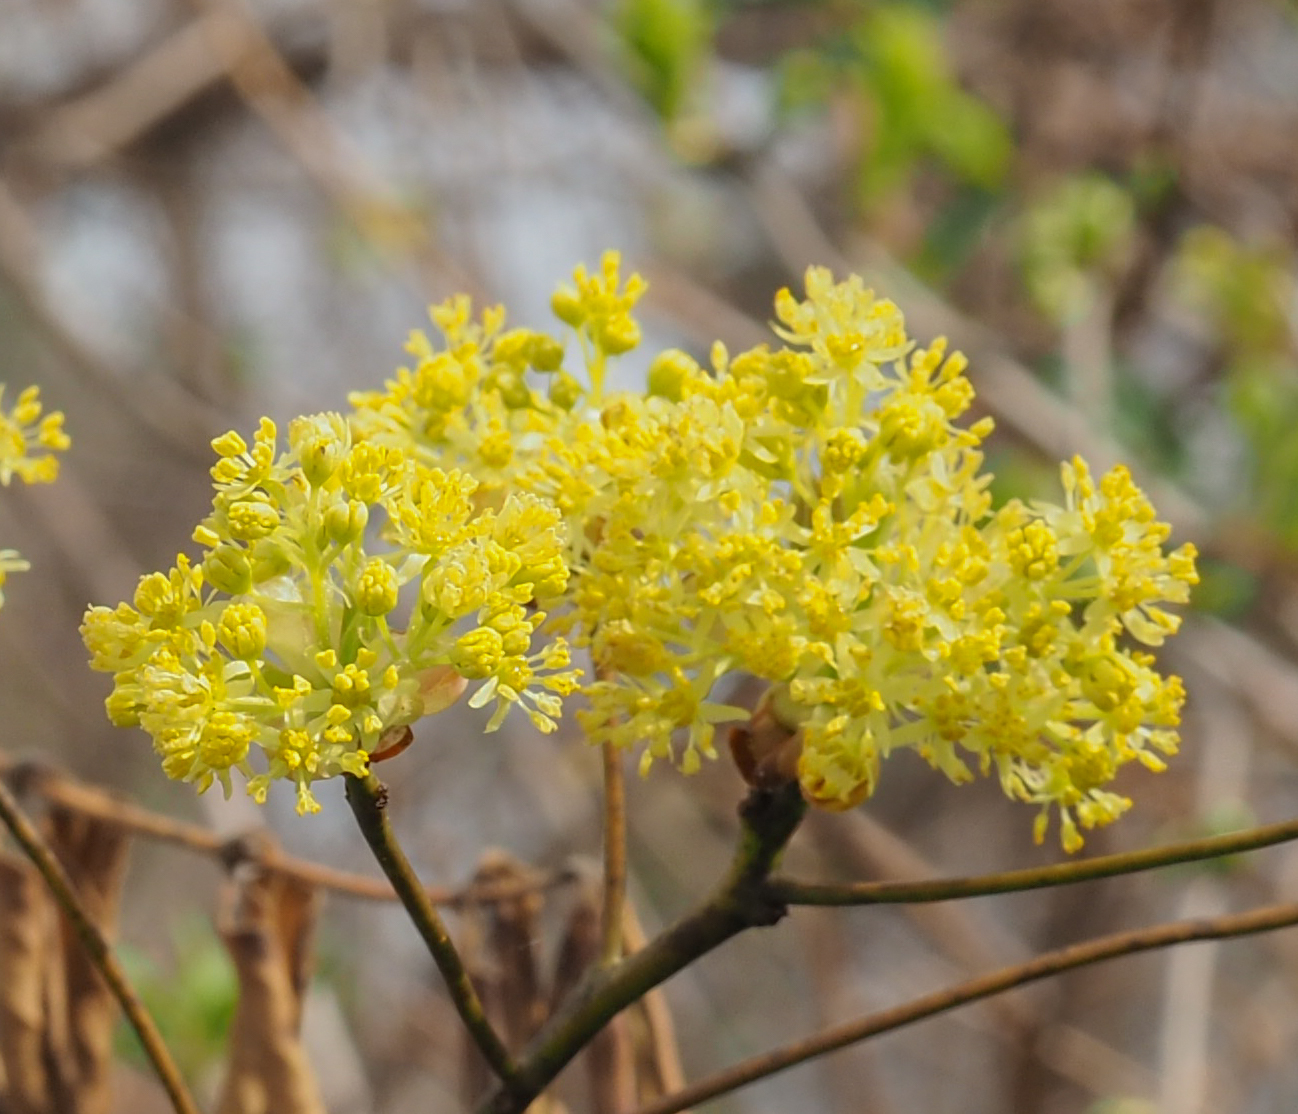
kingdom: Plantae
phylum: Tracheophyta
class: Magnoliopsida
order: Laurales
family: Lauraceae
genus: Sassafras
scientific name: Sassafras albidum
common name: Sassafras
